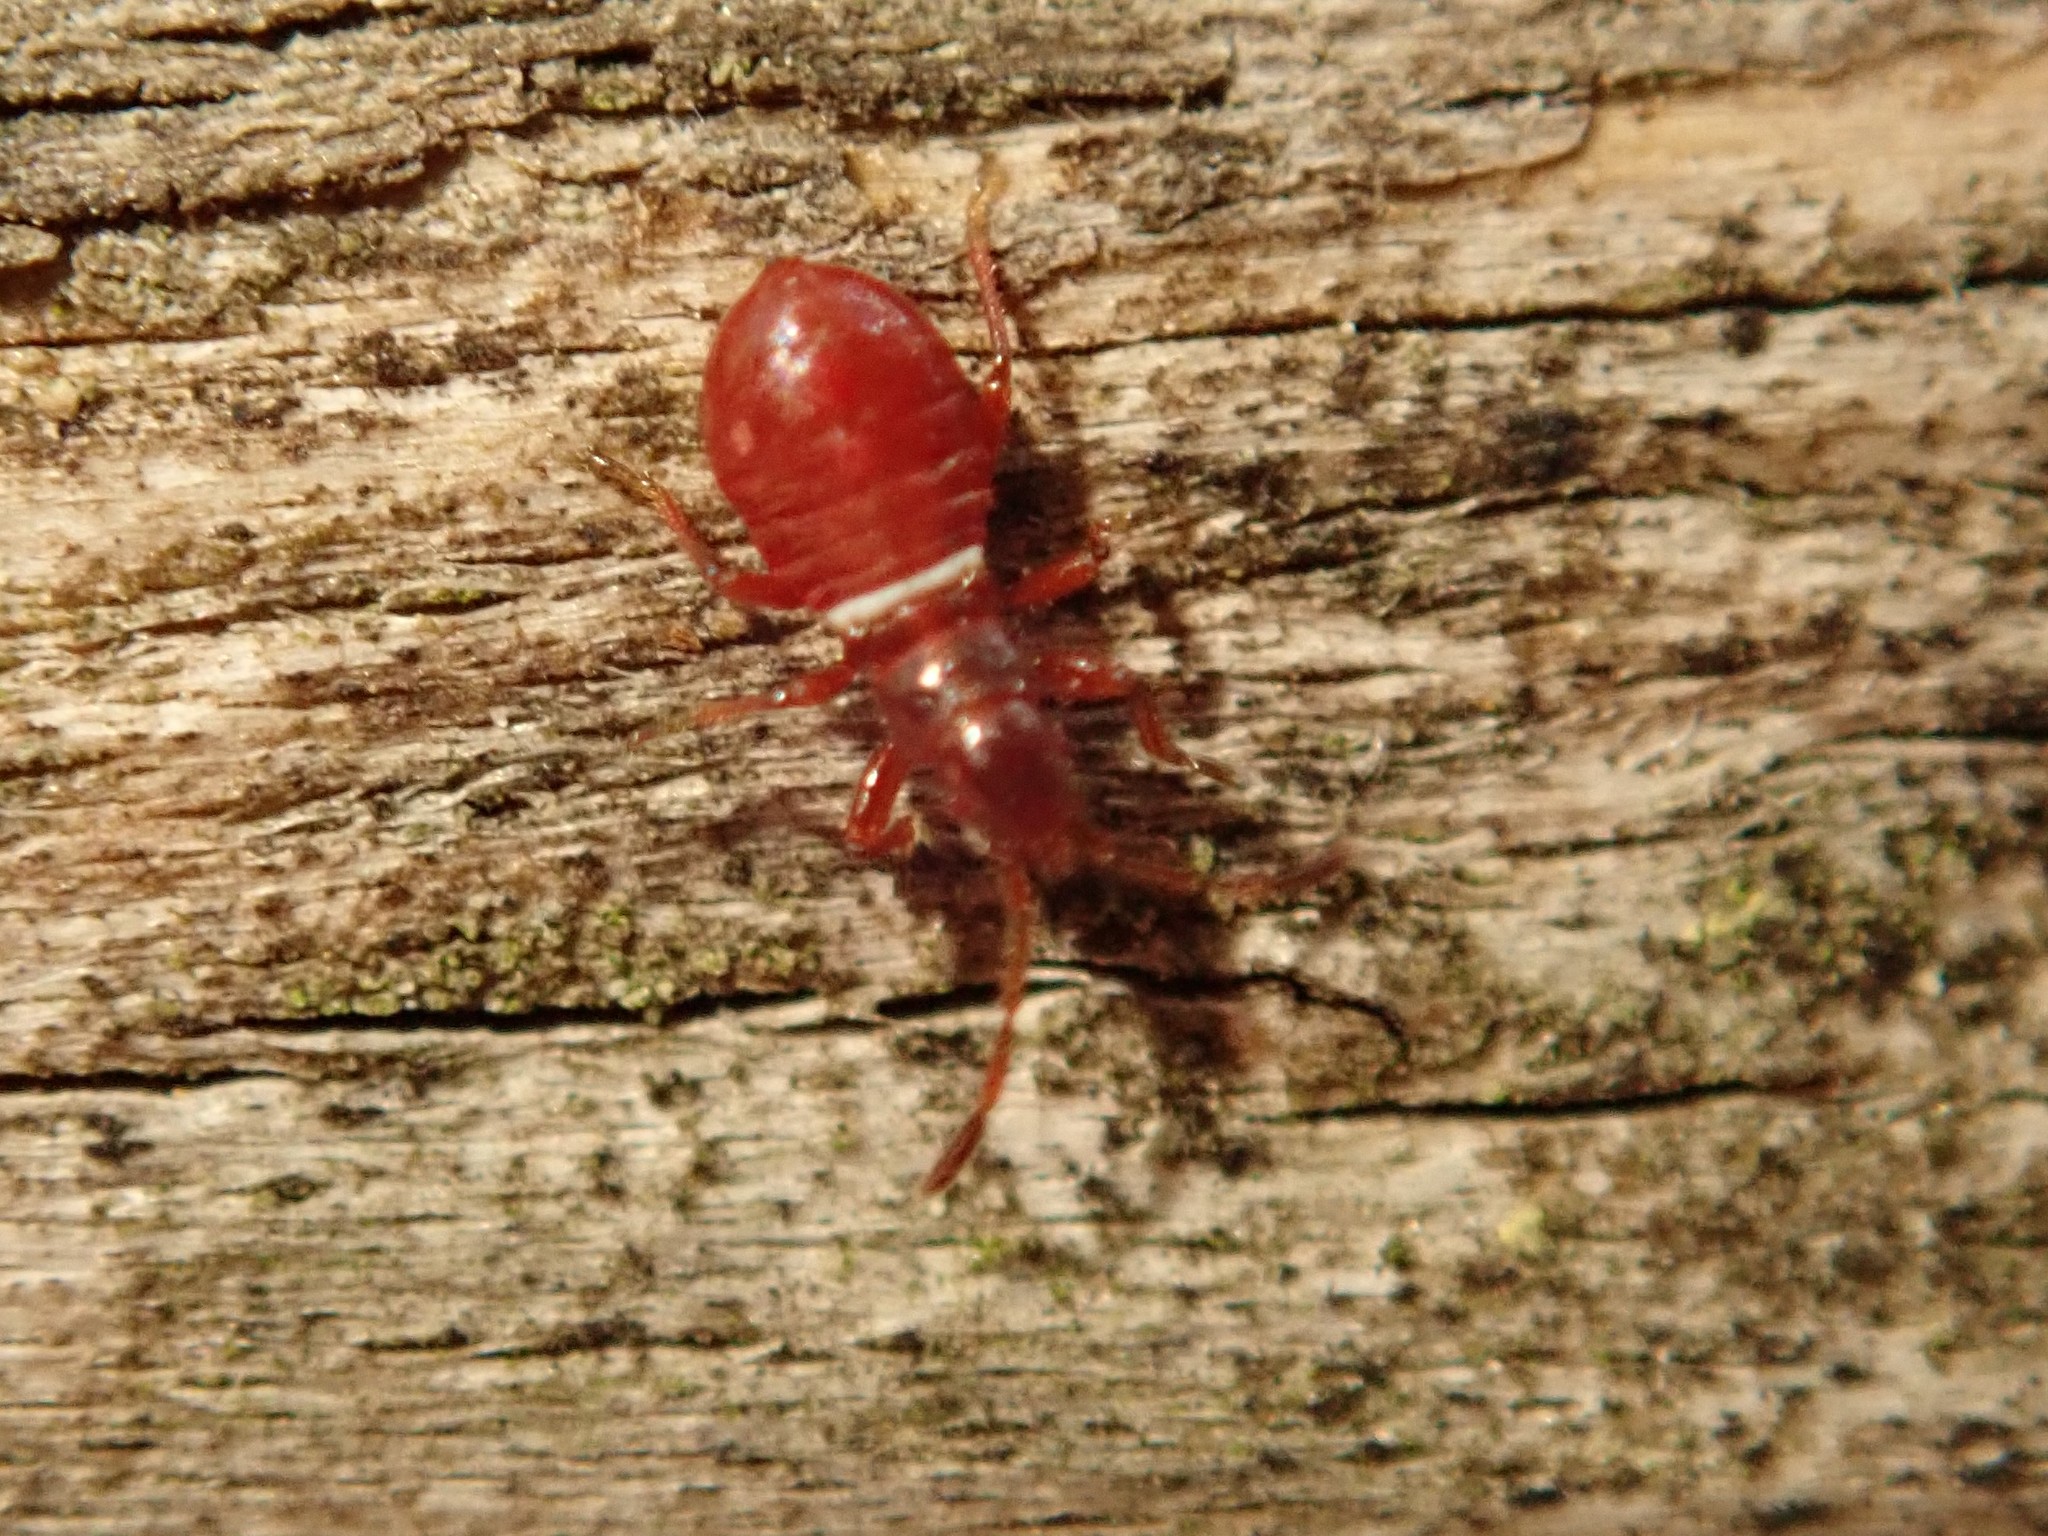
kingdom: Animalia
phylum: Arthropoda
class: Insecta
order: Hemiptera
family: Oxycarenidae
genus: Oxycarenus
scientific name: Oxycarenus lavaterae
